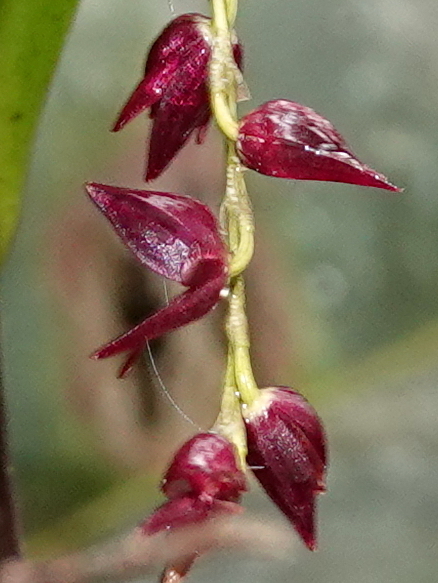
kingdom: Plantae
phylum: Tracheophyta
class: Liliopsida
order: Asparagales
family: Orchidaceae
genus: Pleurothallis
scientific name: Pleurothallis lindenii
